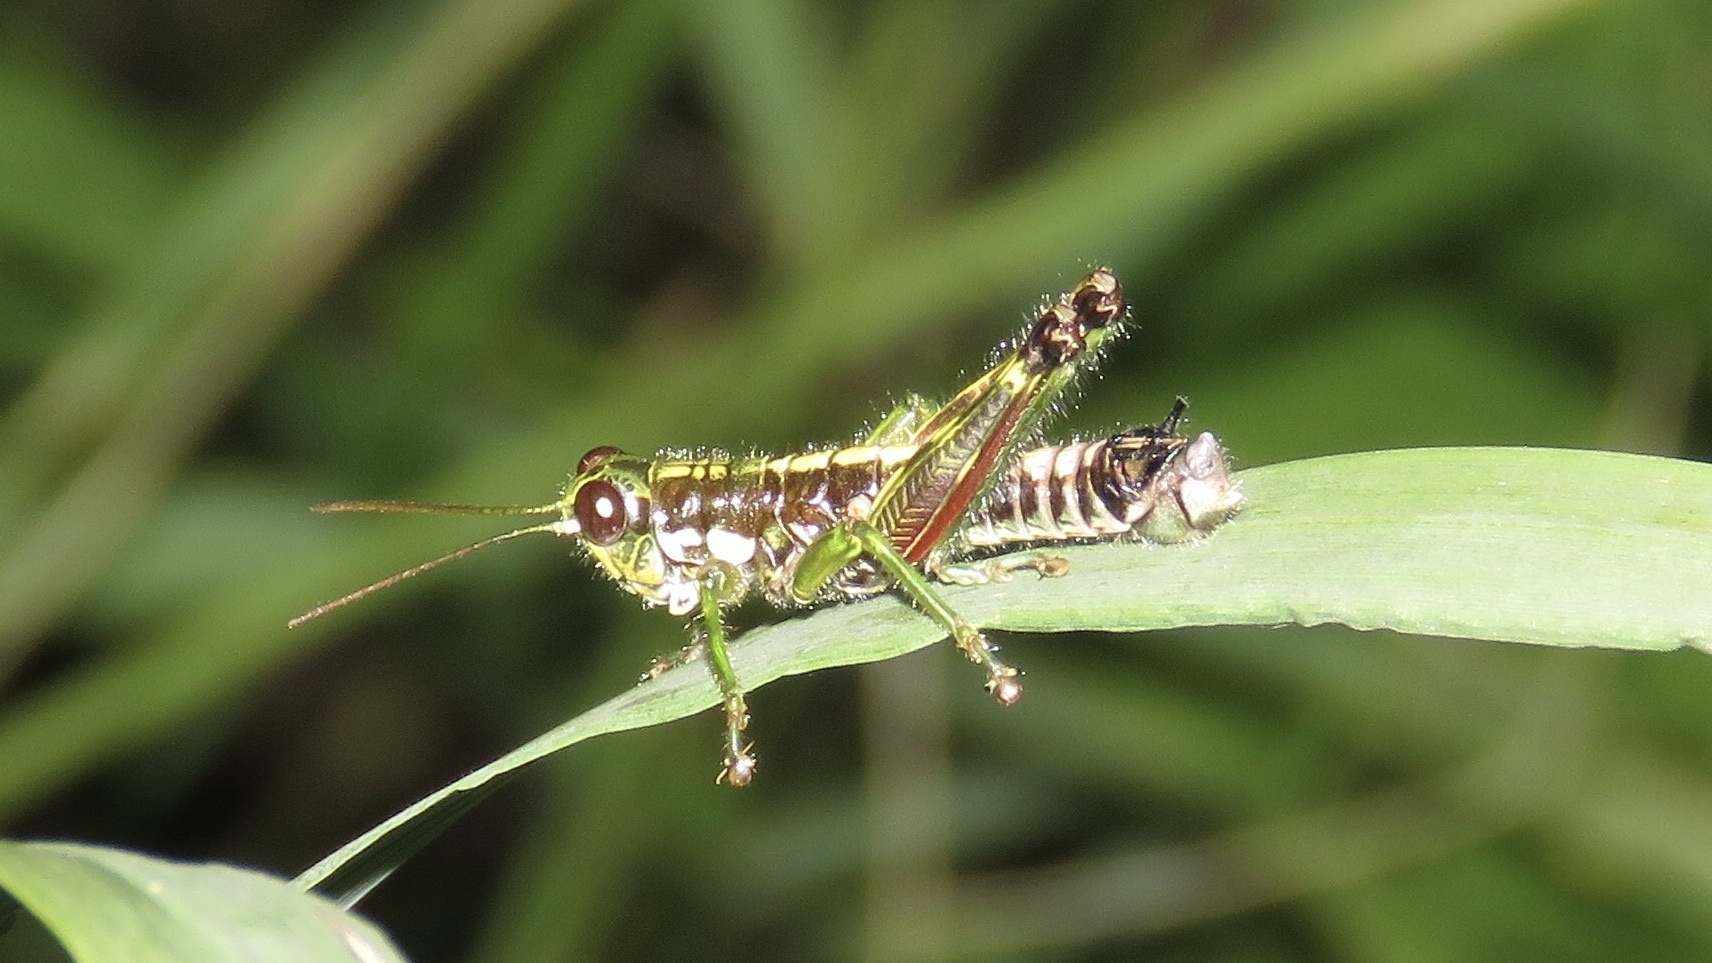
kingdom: Animalia
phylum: Arthropoda
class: Insecta
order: Orthoptera
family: Acrididae
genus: Booneacris
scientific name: Booneacris glacialis
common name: Wingless mountain grasshopper
